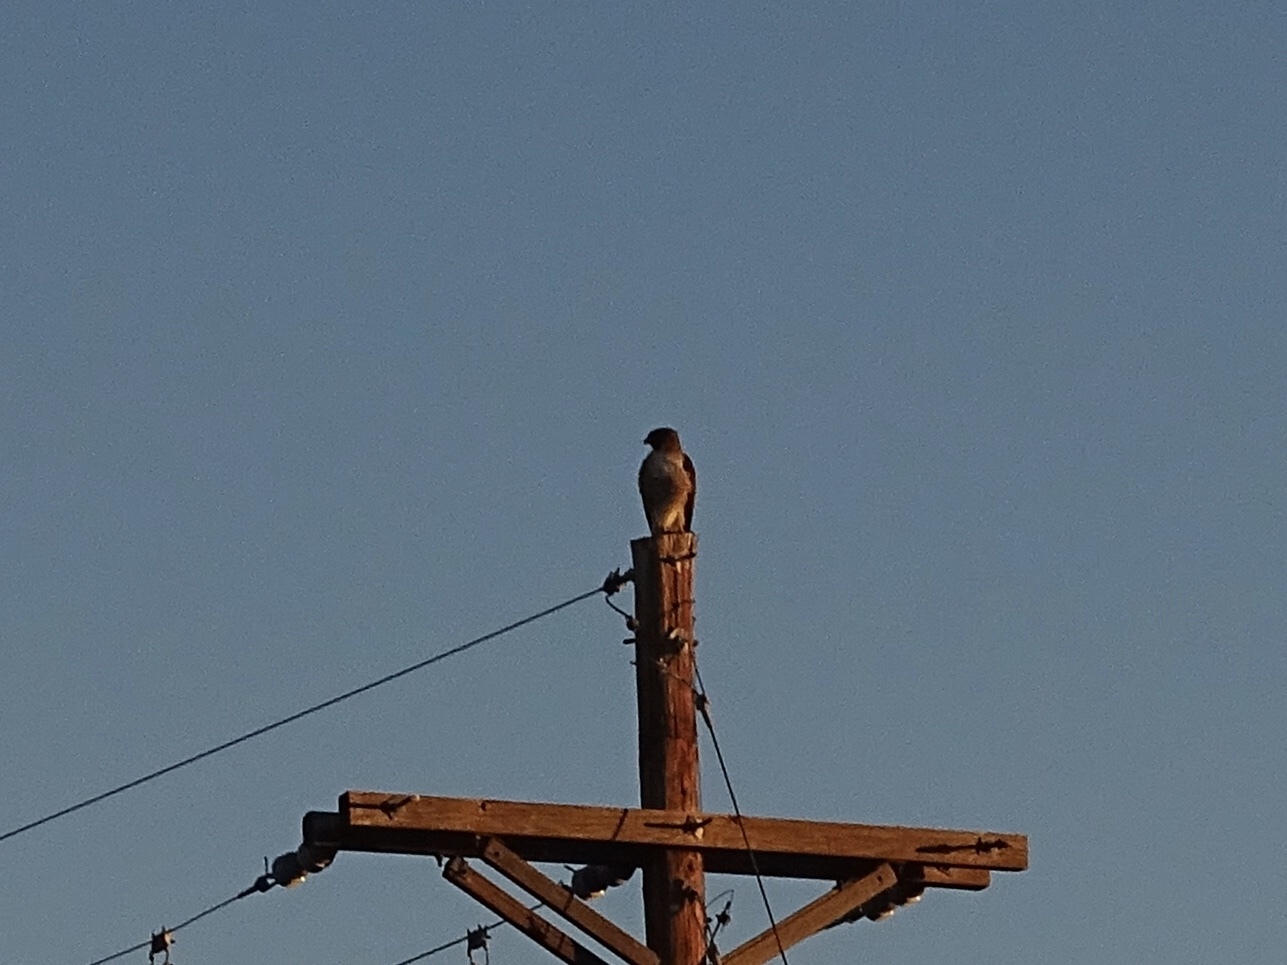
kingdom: Animalia
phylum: Chordata
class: Aves
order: Accipitriformes
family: Accipitridae
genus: Buteo
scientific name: Buteo jamaicensis
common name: Red-tailed hawk
